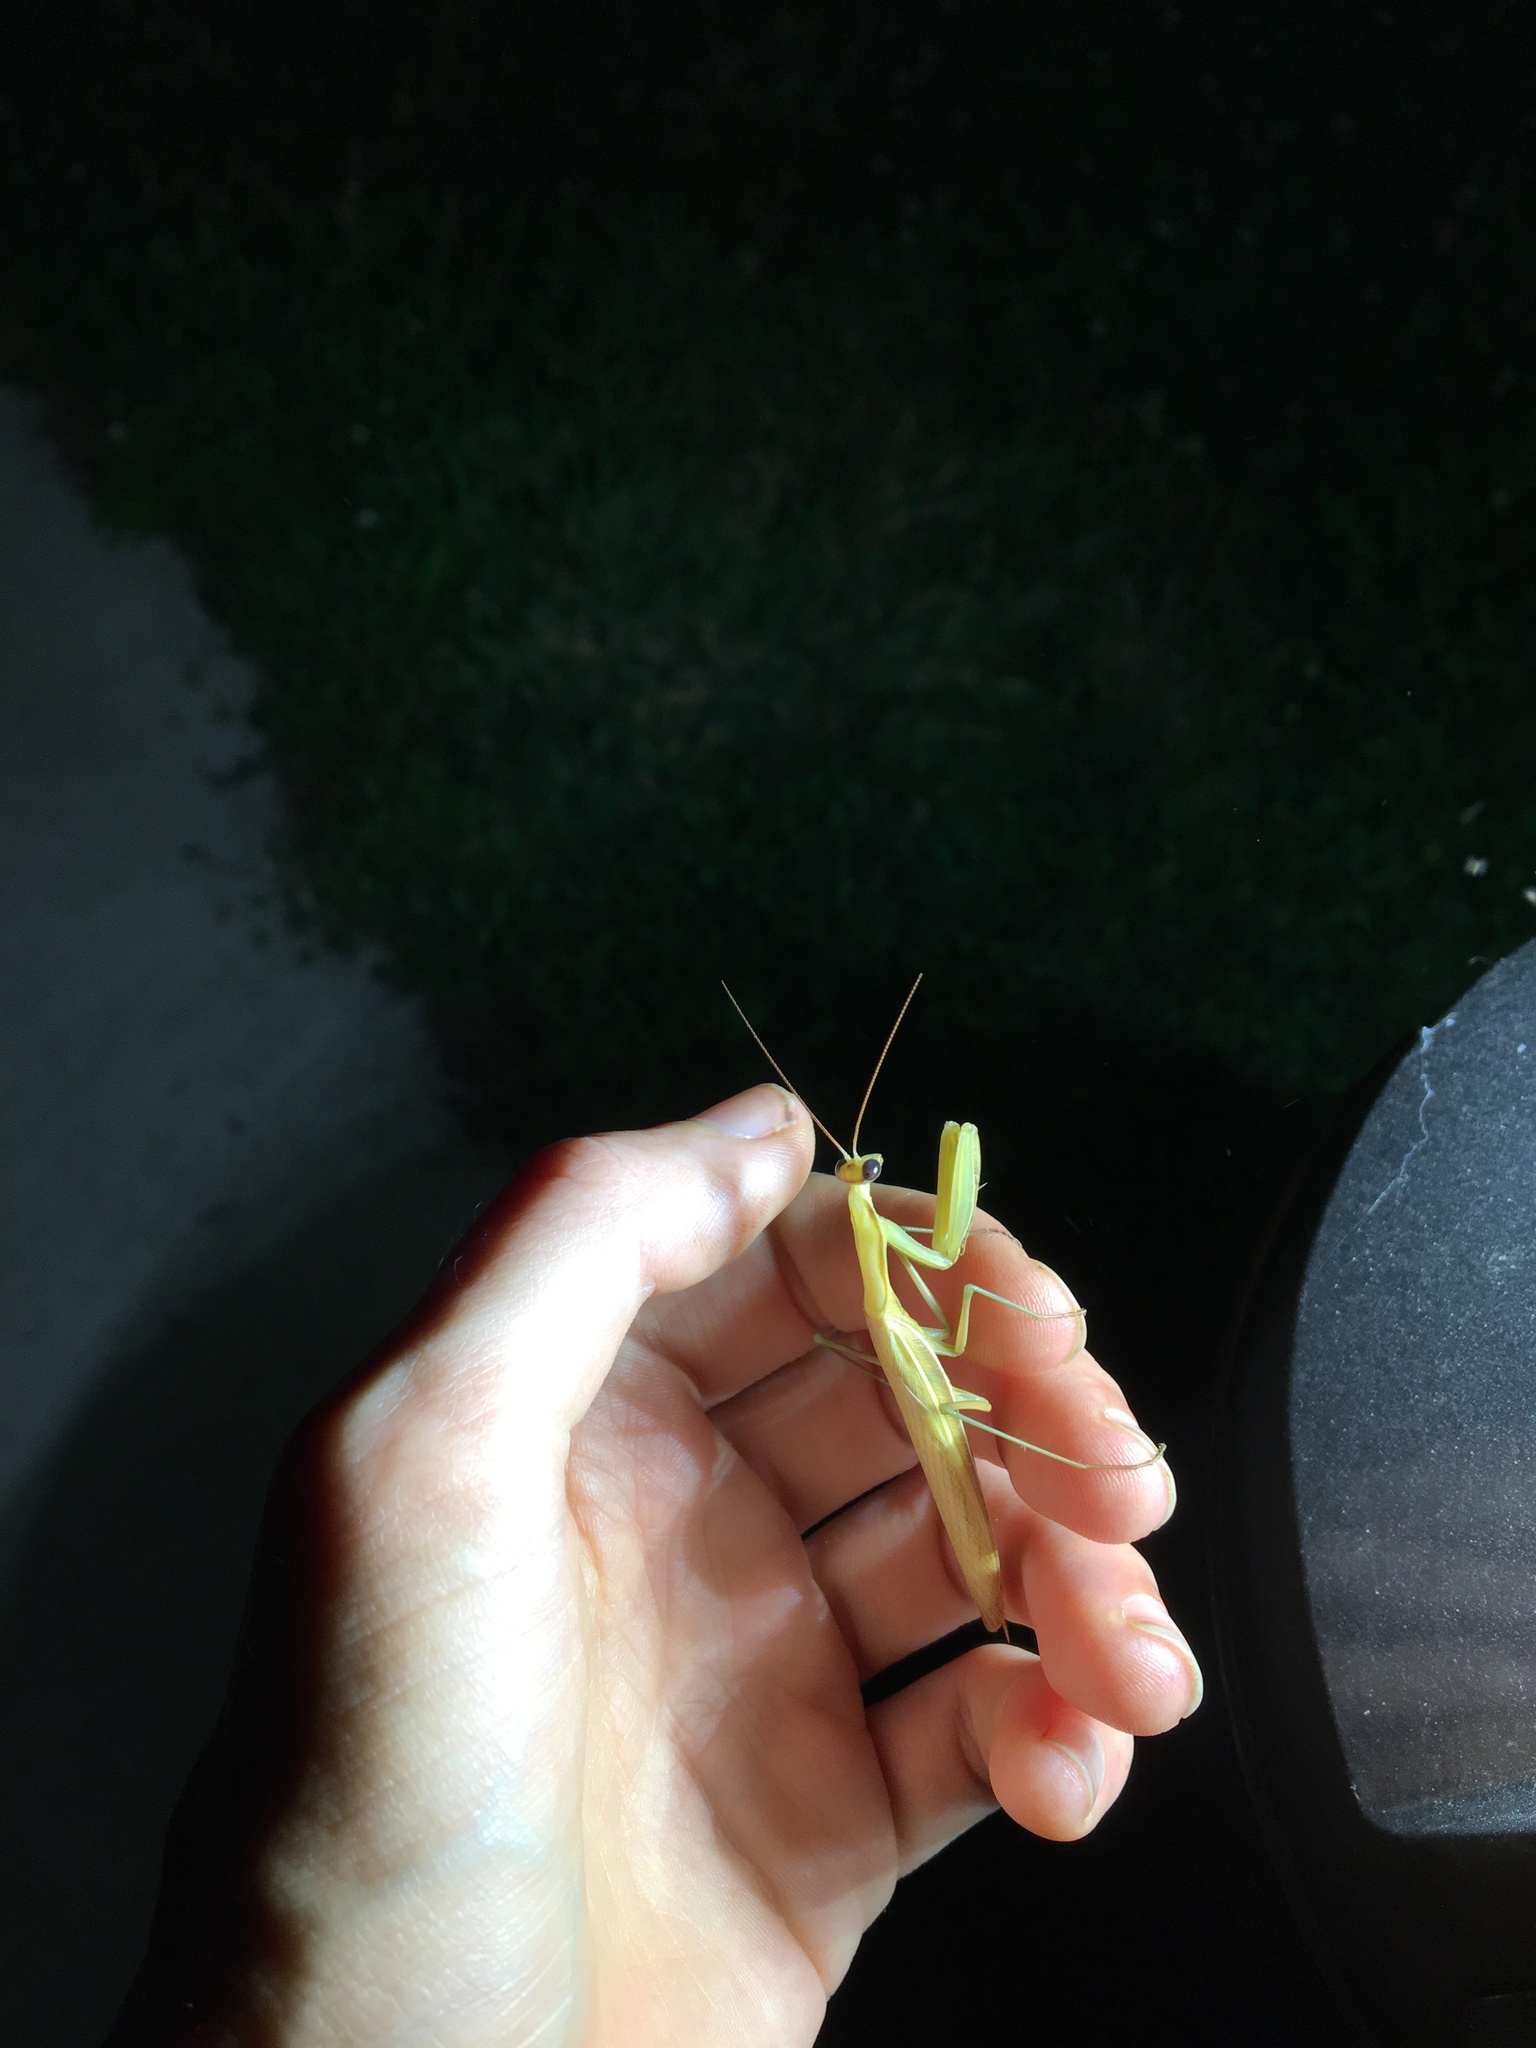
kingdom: Animalia
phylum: Arthropoda
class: Insecta
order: Mantodea
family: Mantidae
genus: Mantis
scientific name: Mantis religiosa
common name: Praying mantis
